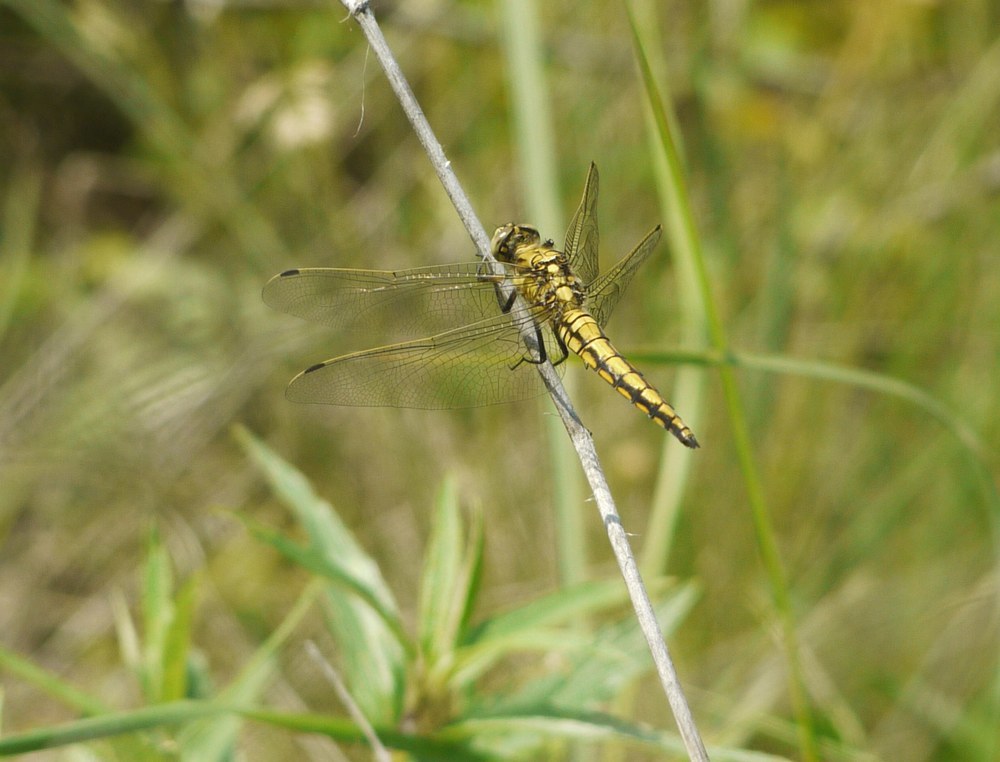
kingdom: Animalia
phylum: Arthropoda
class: Insecta
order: Odonata
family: Libellulidae
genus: Orthetrum
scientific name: Orthetrum cancellatum
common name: Black-tailed skimmer
